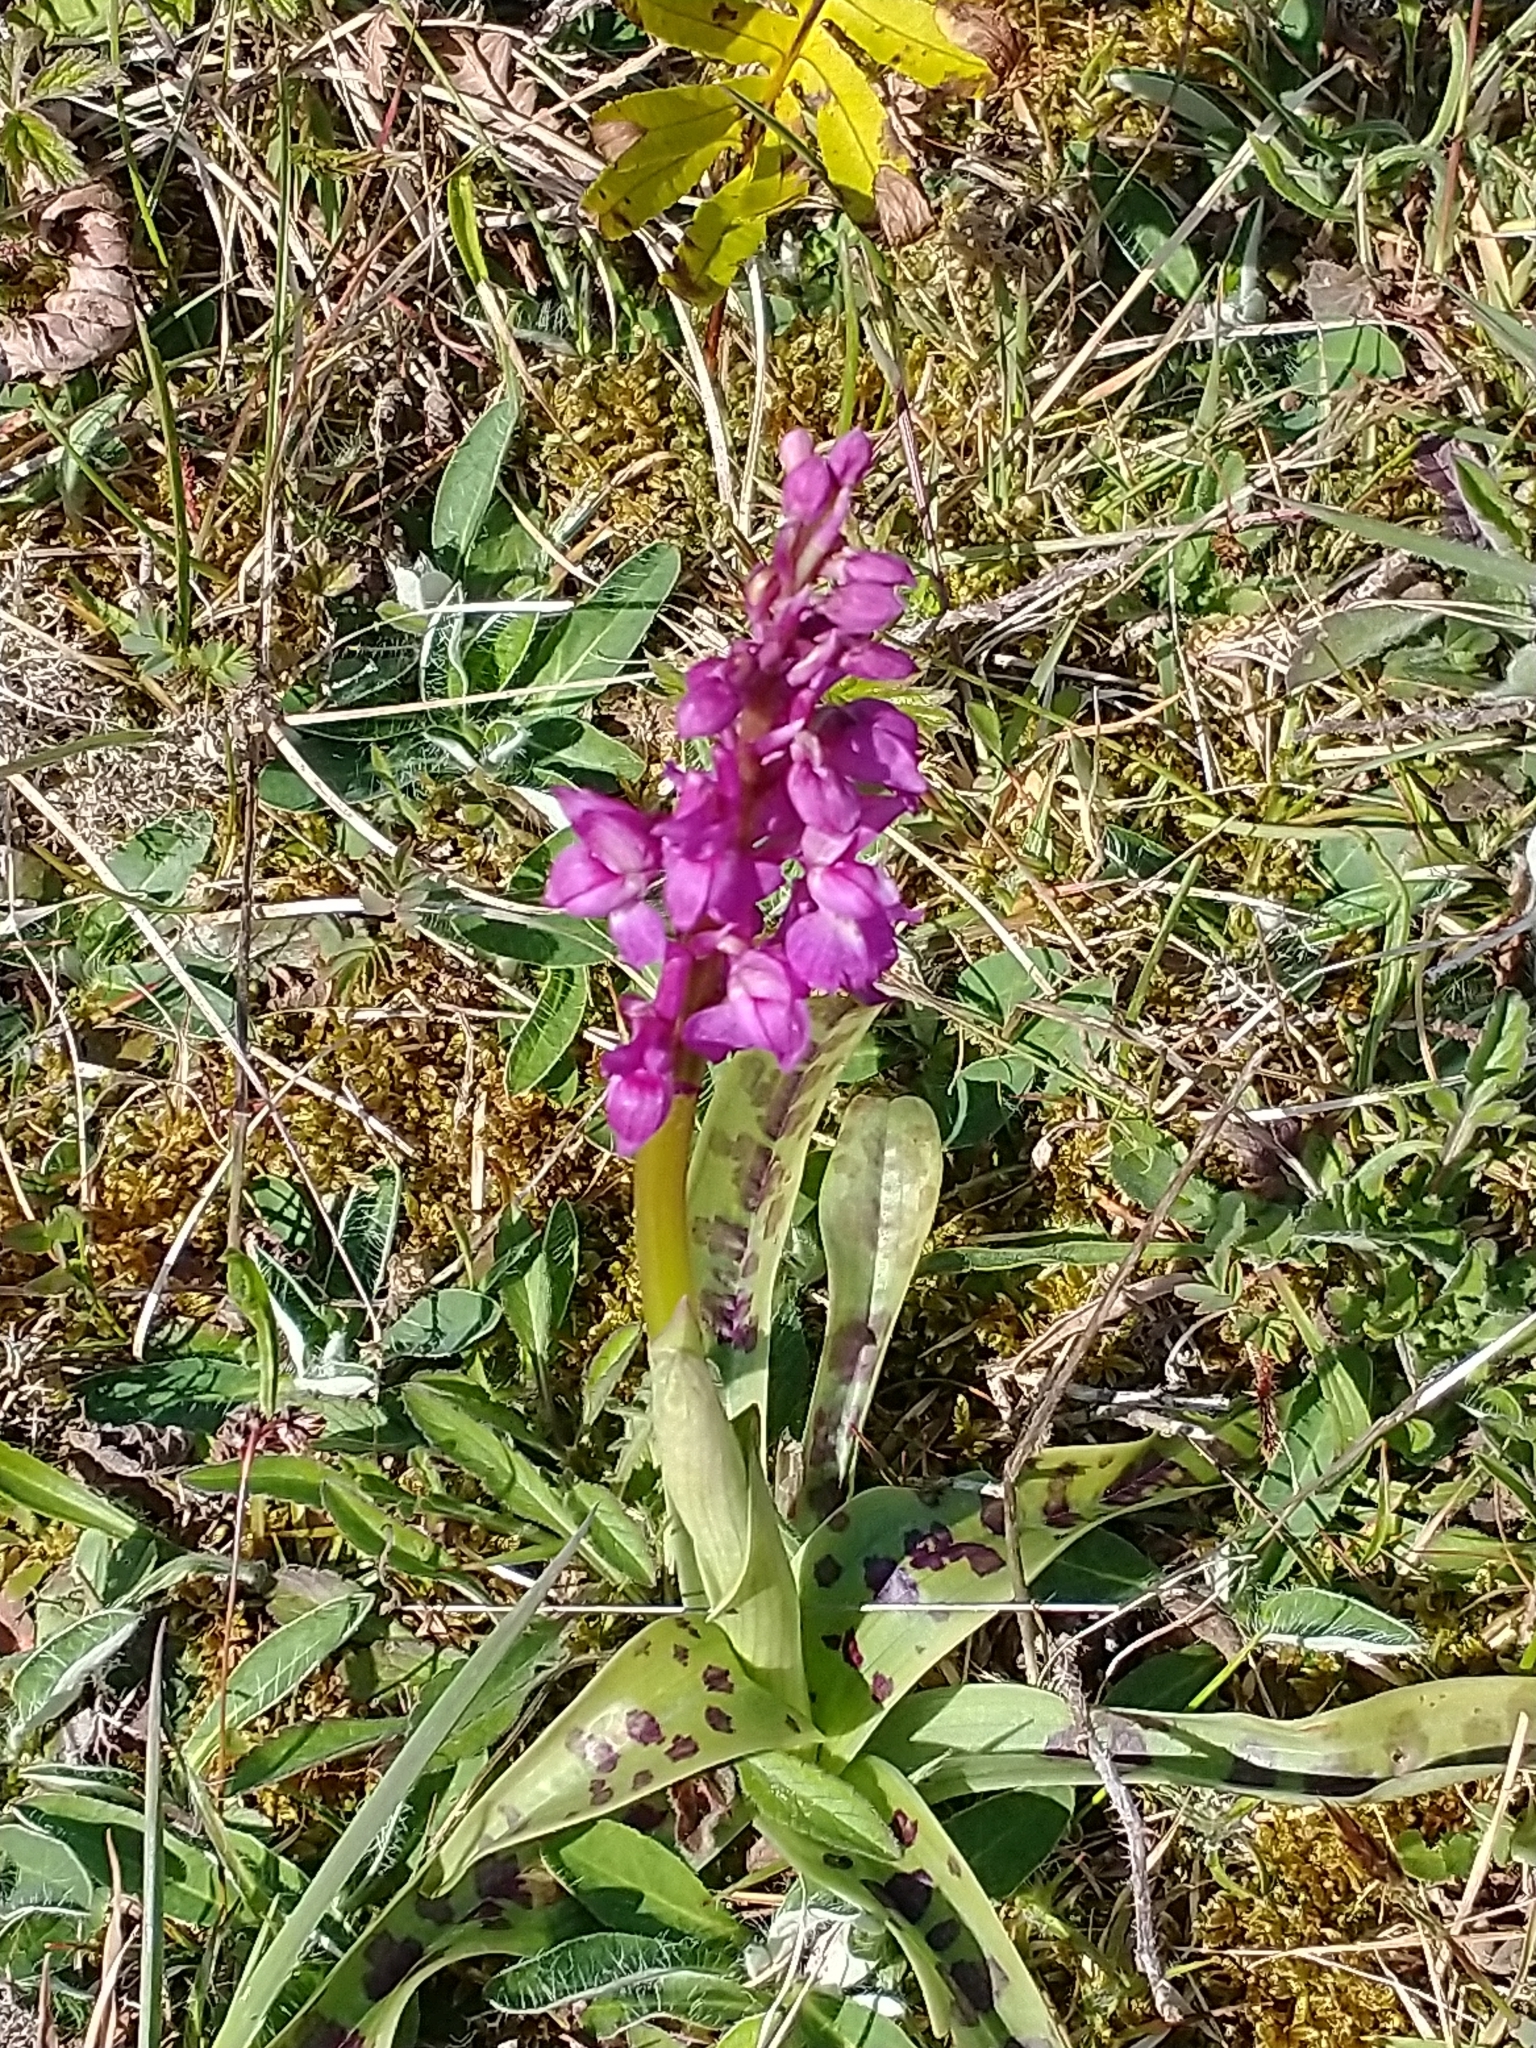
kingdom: Plantae
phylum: Tracheophyta
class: Liliopsida
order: Asparagales
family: Orchidaceae
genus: Orchis
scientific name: Orchis mascula
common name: Early-purple orchid
